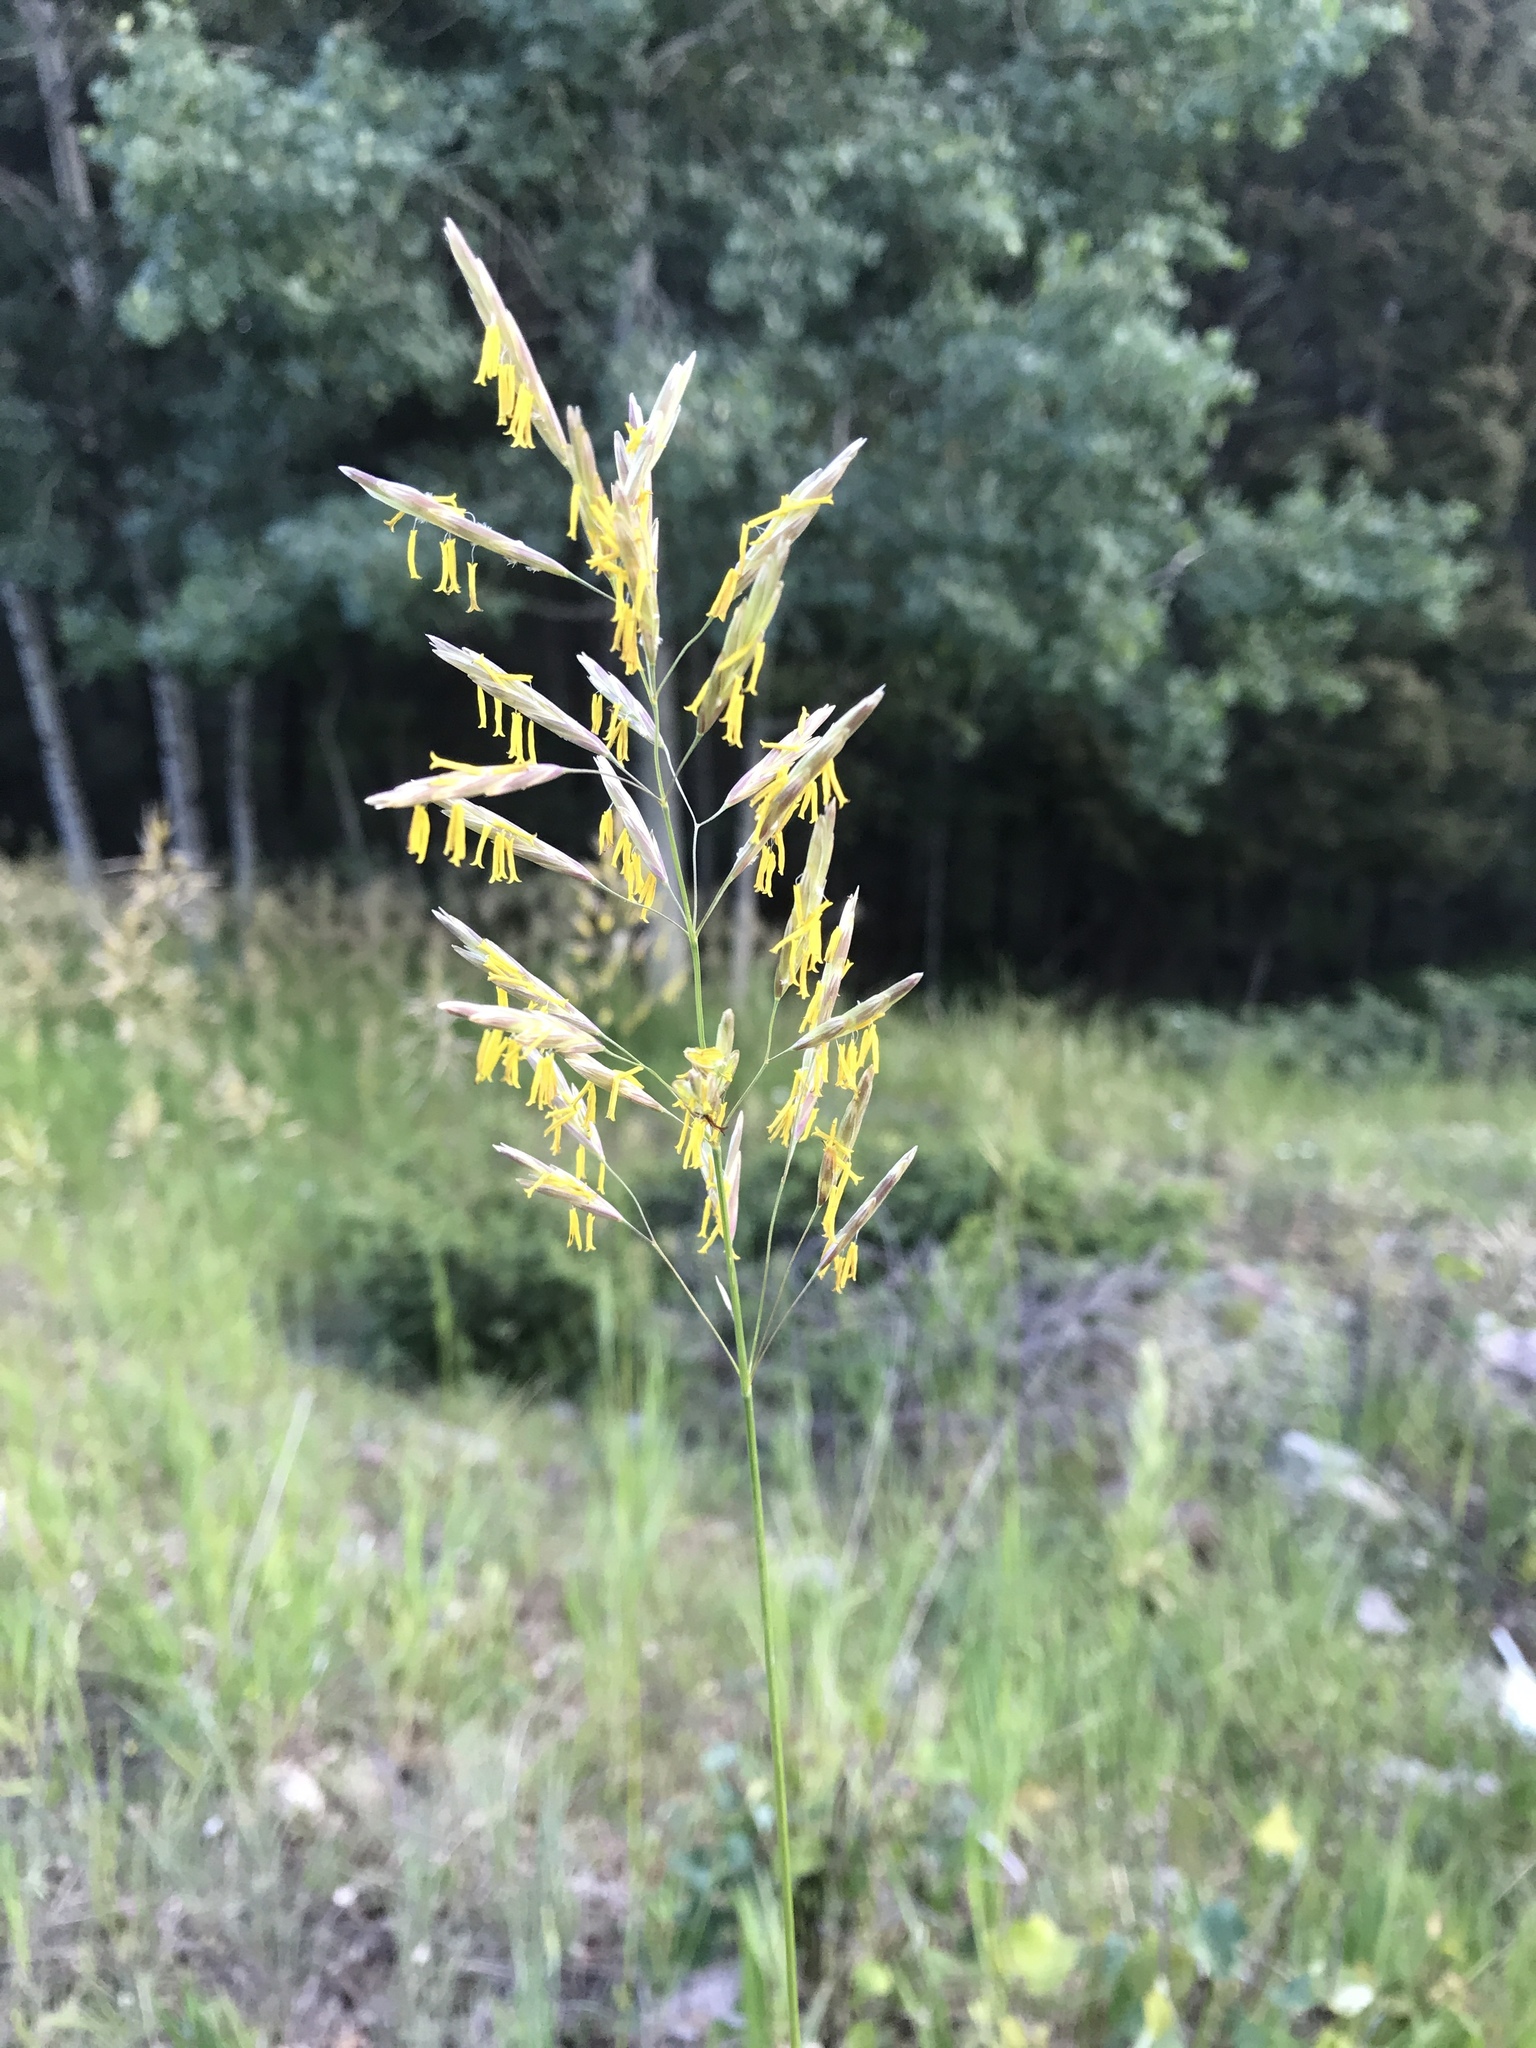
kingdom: Plantae
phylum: Tracheophyta
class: Liliopsida
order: Poales
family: Poaceae
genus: Bromus
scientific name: Bromus inermis
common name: Smooth brome
